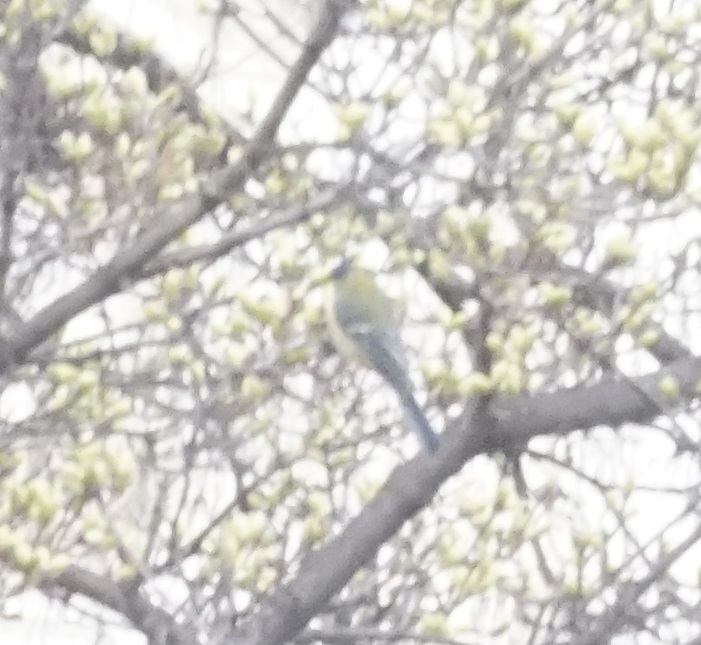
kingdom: Animalia
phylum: Chordata
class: Aves
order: Passeriformes
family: Paridae
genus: Parus
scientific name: Parus major
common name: Great tit
